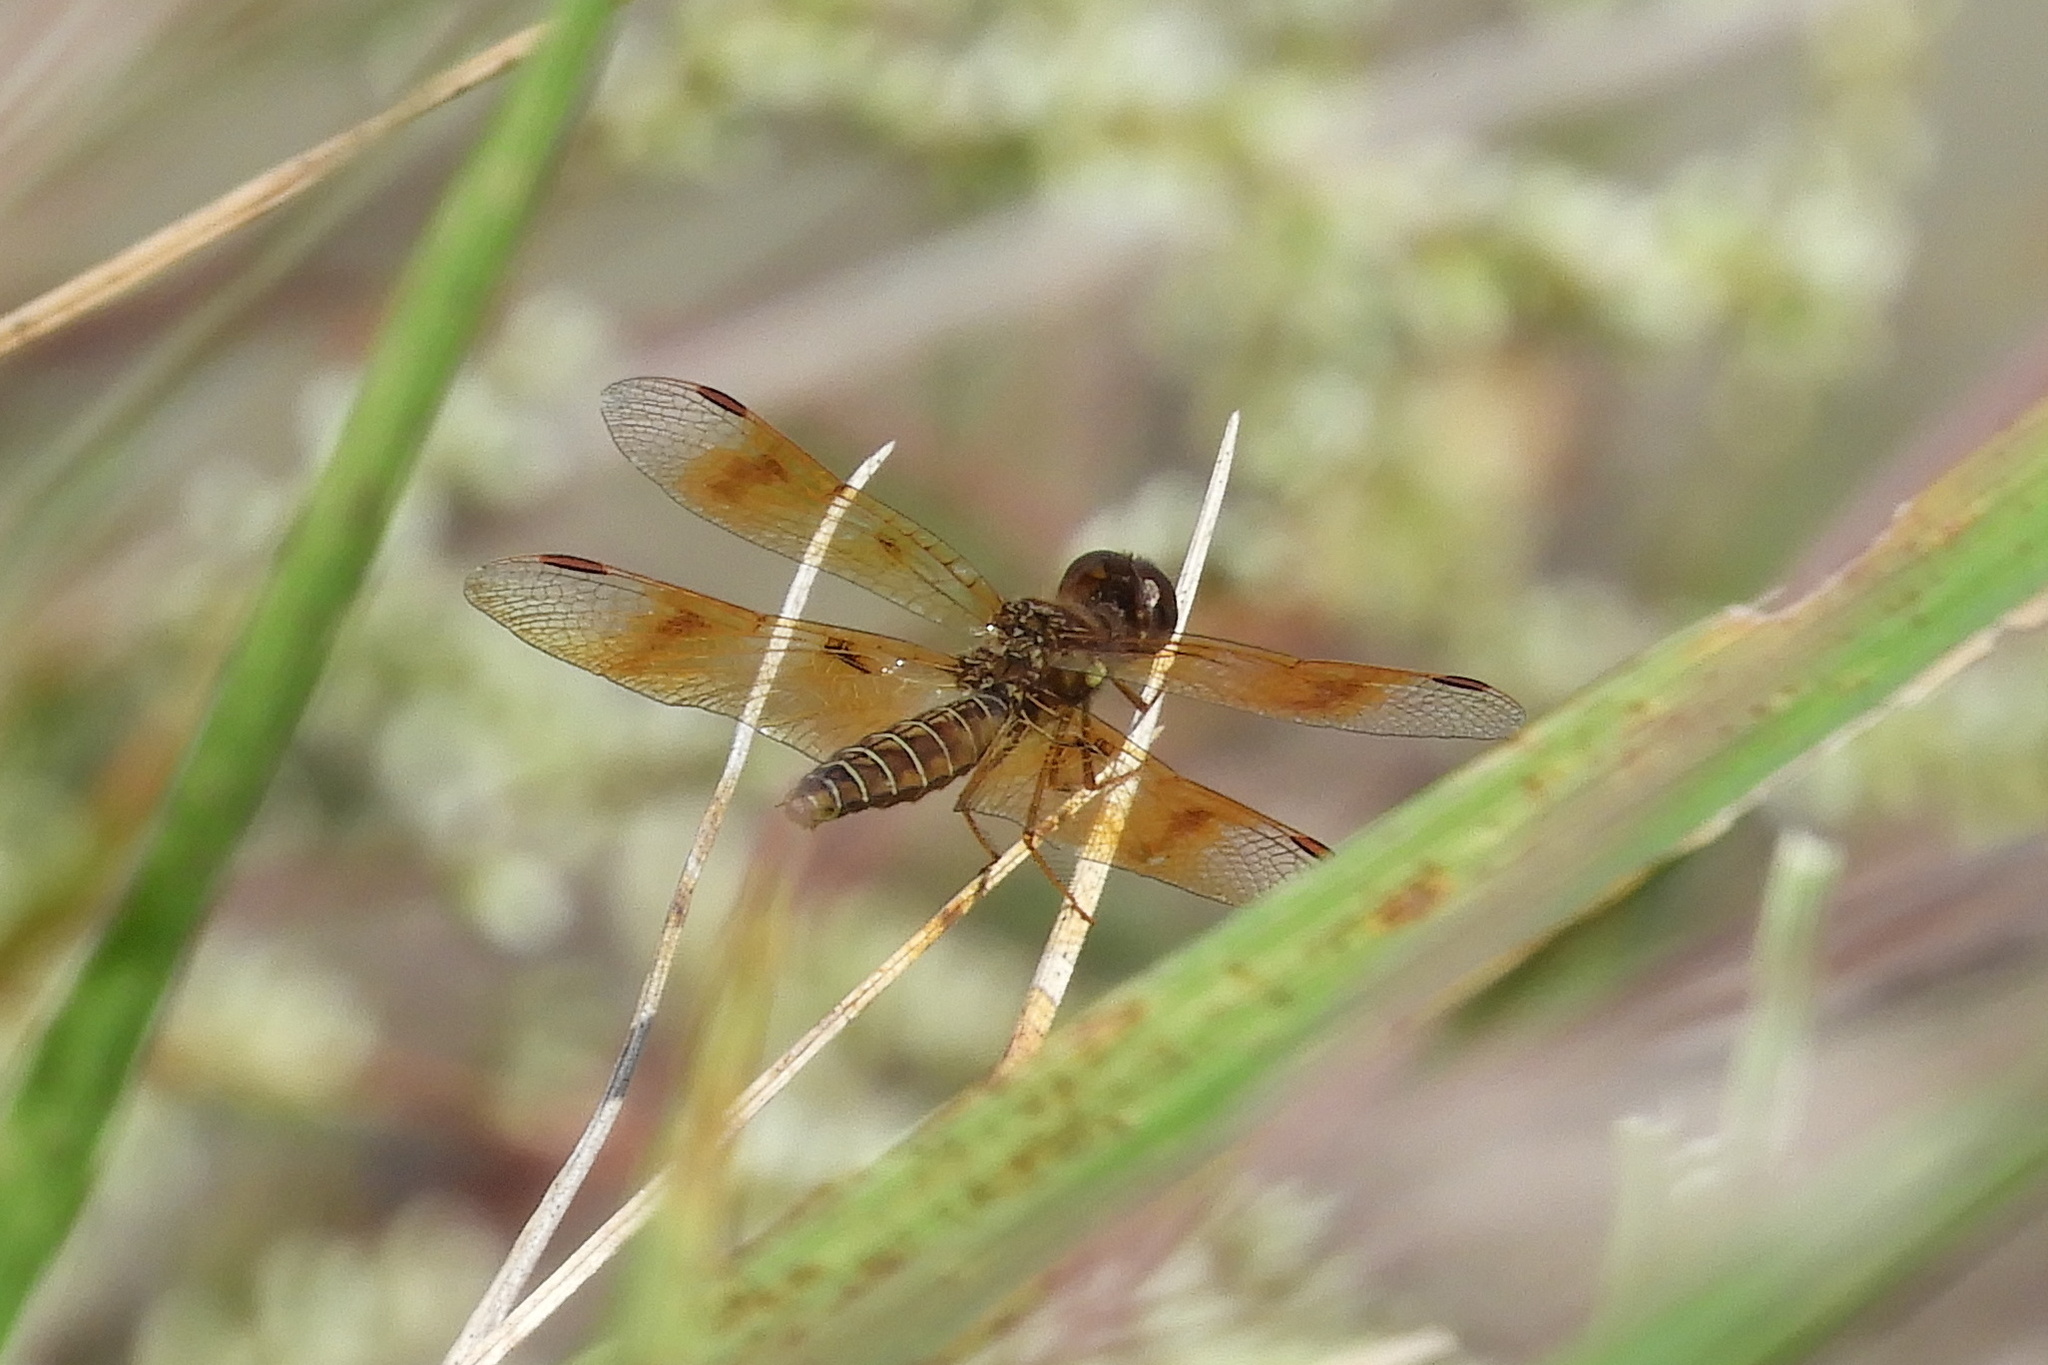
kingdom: Animalia
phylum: Arthropoda
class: Insecta
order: Odonata
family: Libellulidae
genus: Perithemis
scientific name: Perithemis tenera
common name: Eastern amberwing
